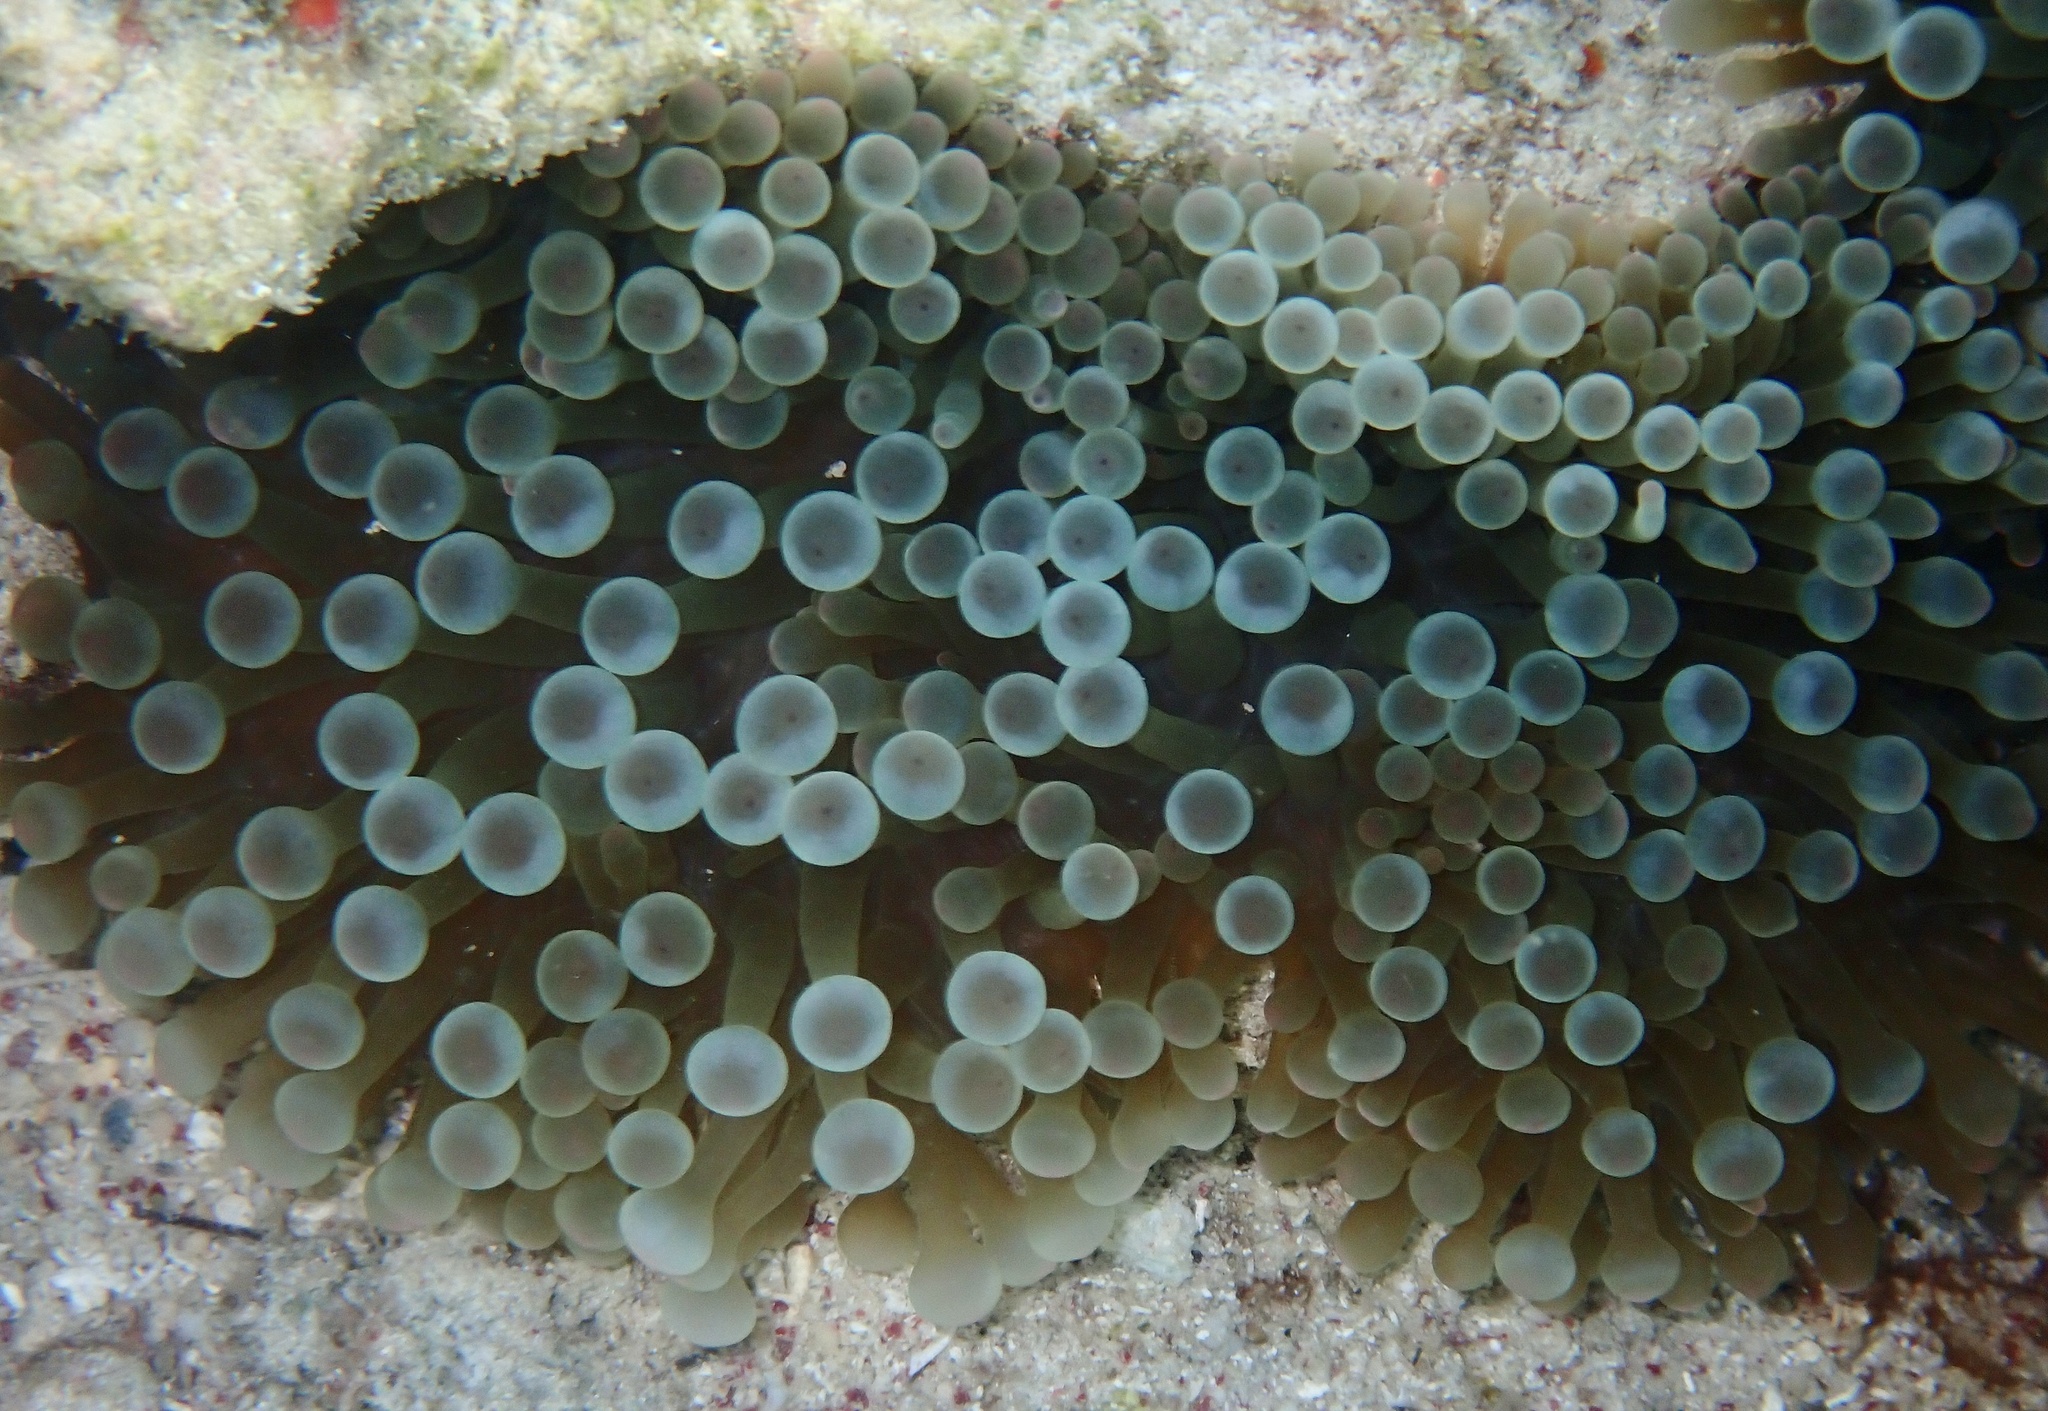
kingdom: Animalia
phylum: Cnidaria
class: Anthozoa
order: Actiniaria
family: Actiniidae
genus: Entacmaea
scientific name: Entacmaea quadricolor
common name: Bulb tentacle sea anemone
